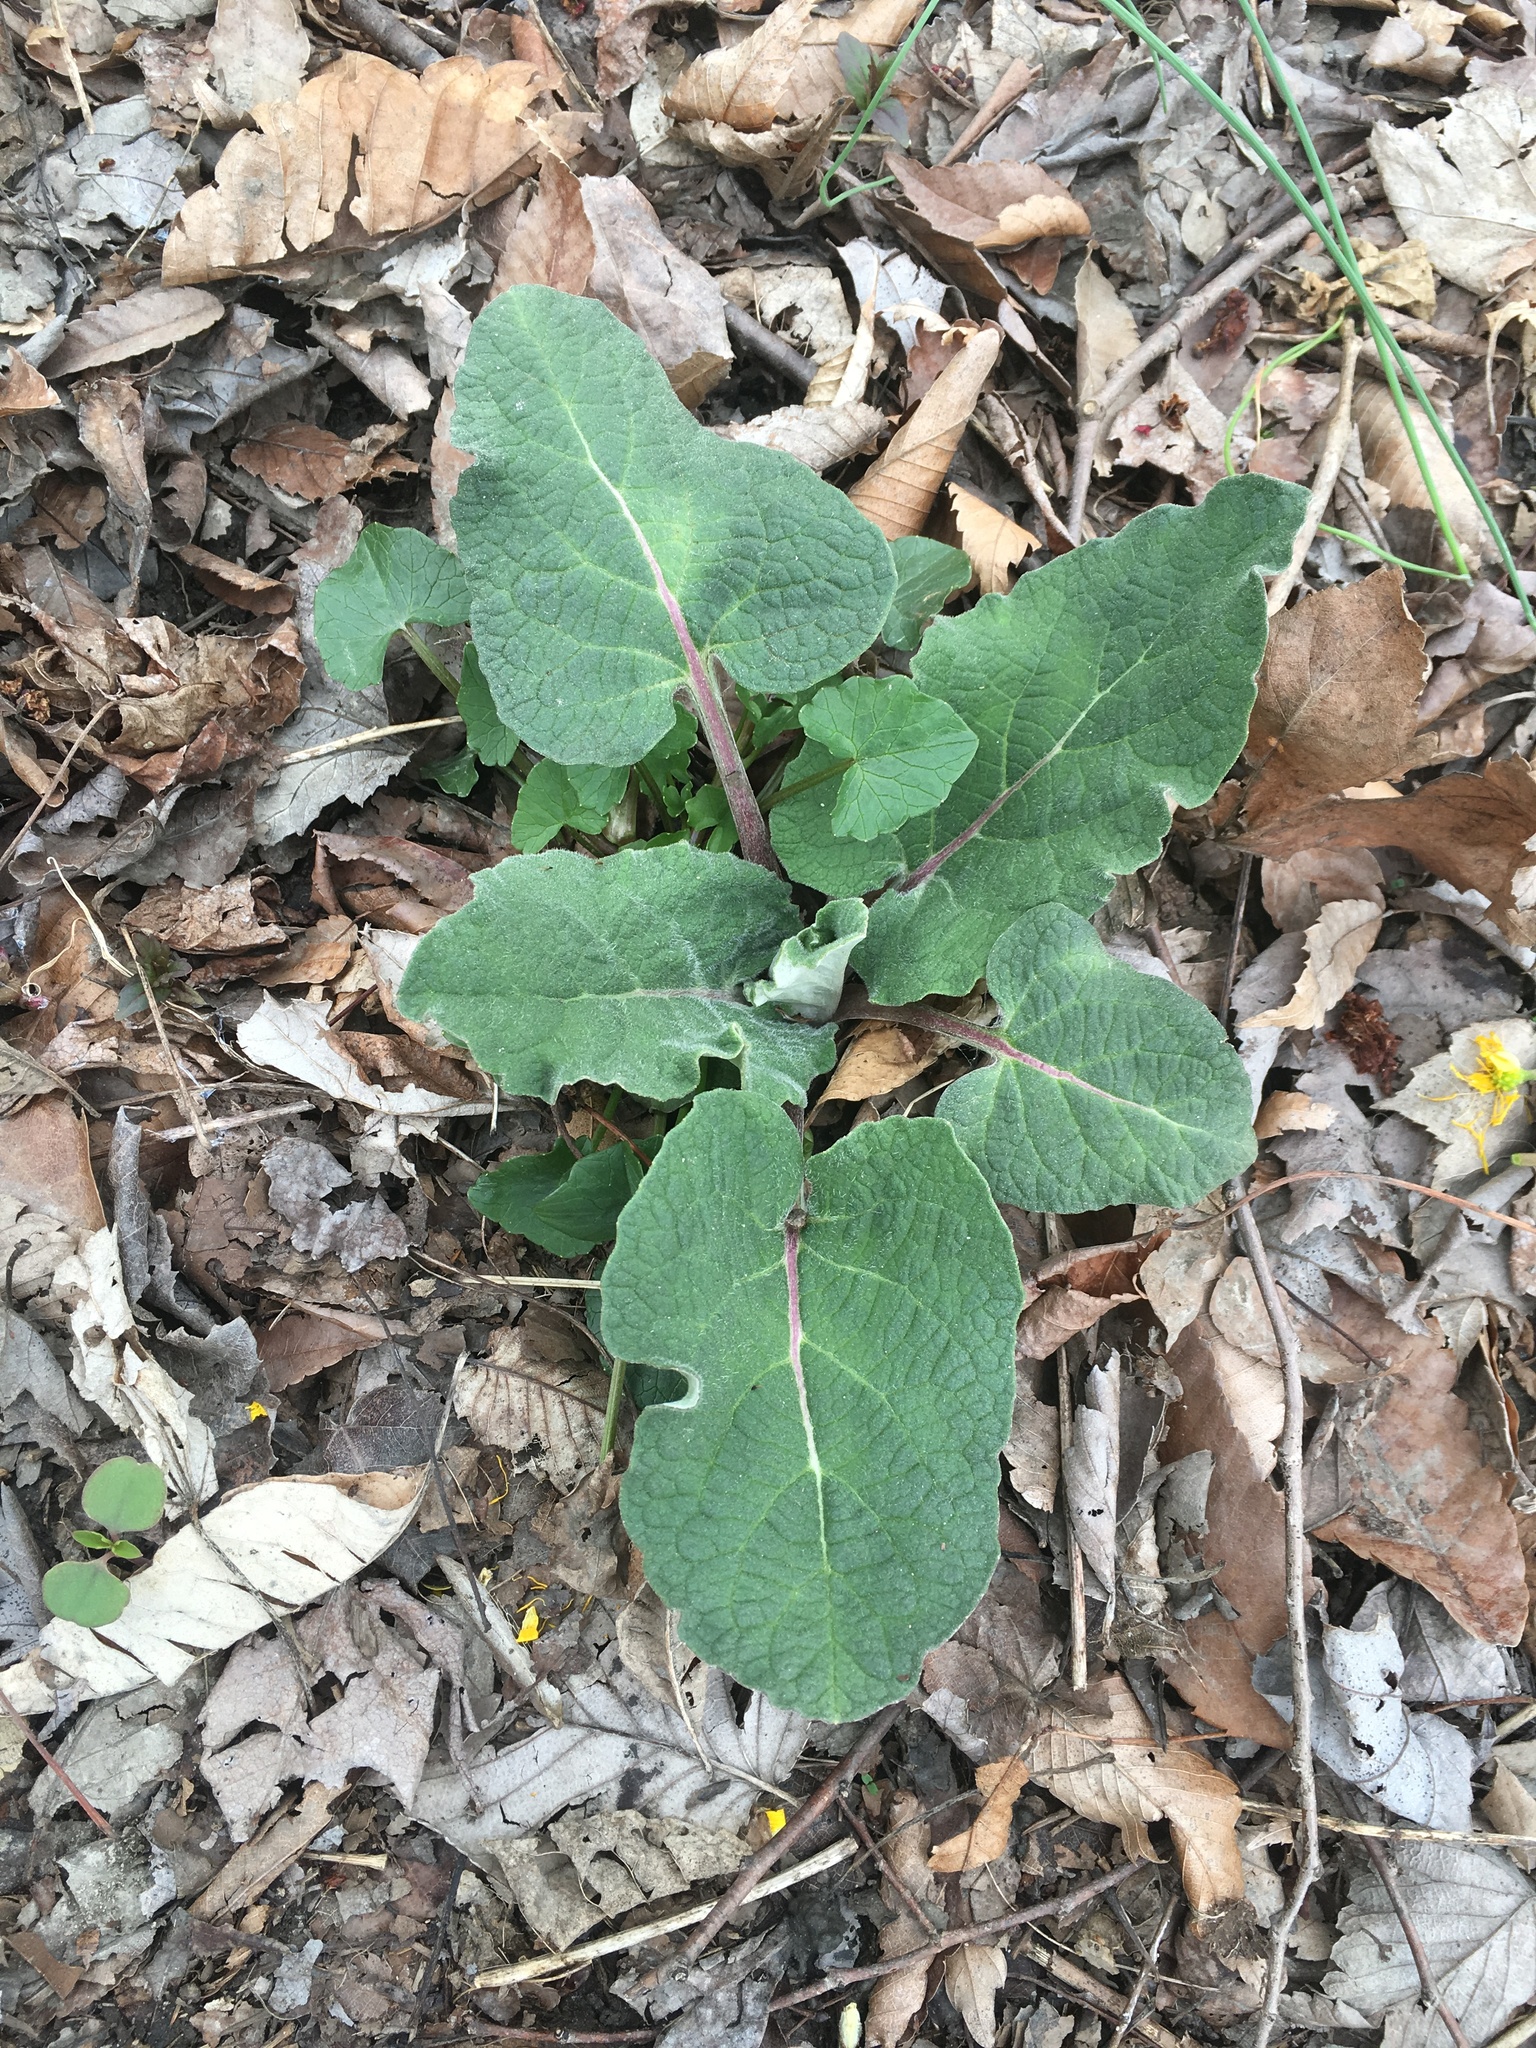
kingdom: Plantae
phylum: Tracheophyta
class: Magnoliopsida
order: Asterales
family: Asteraceae
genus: Arctium
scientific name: Arctium
